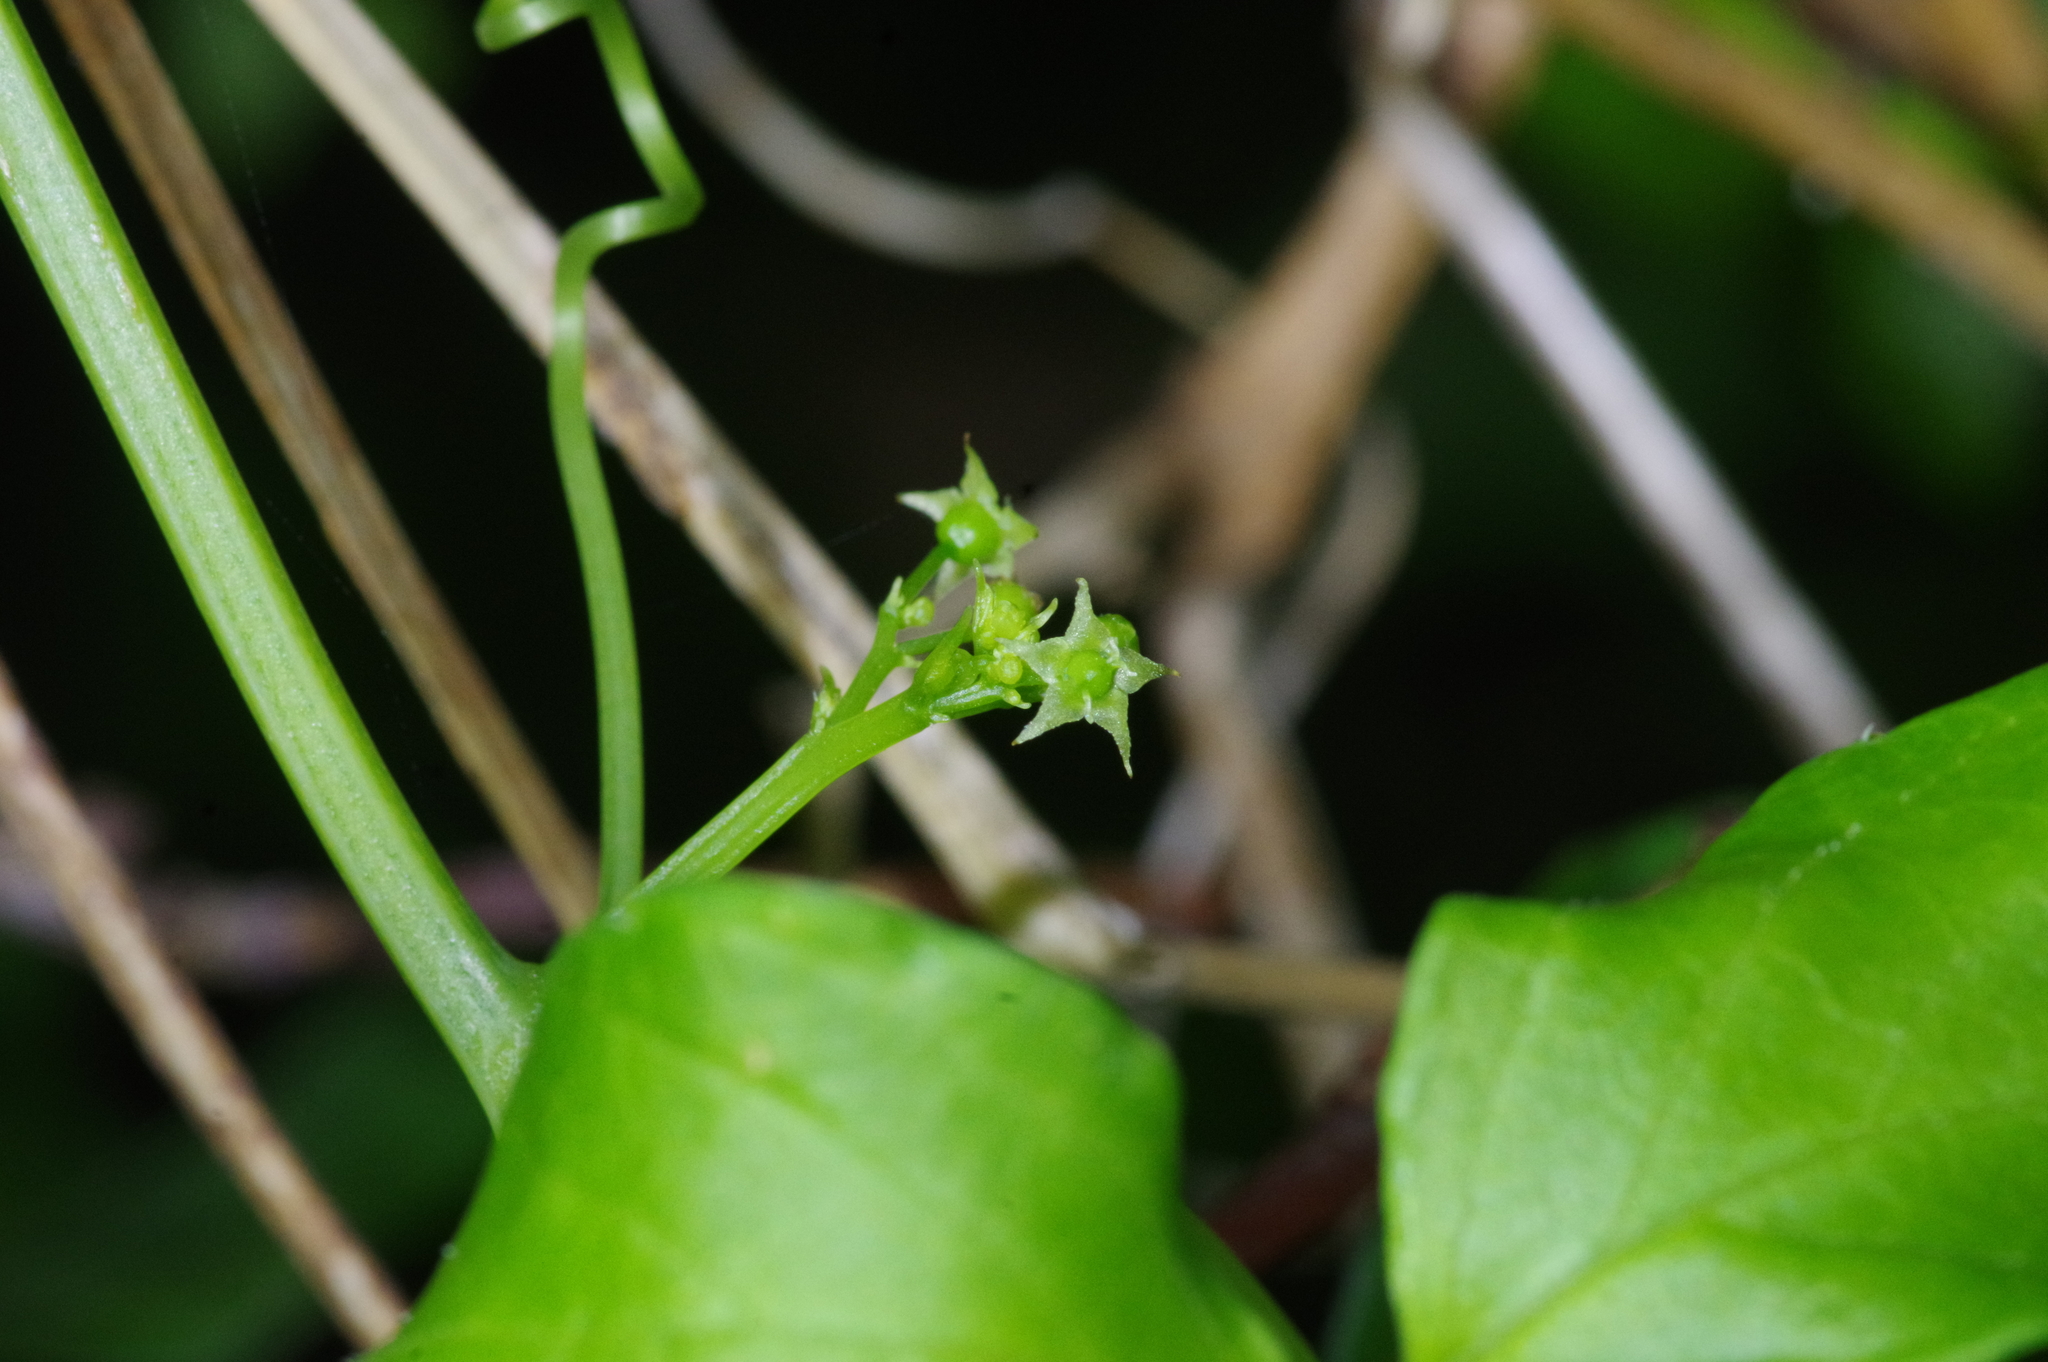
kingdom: Plantae
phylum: Tracheophyta
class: Magnoliopsida
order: Cucurbitales
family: Cucurbitaceae
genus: Gynostemma
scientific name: Gynostemma pentaphyllum
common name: Gynostemma
